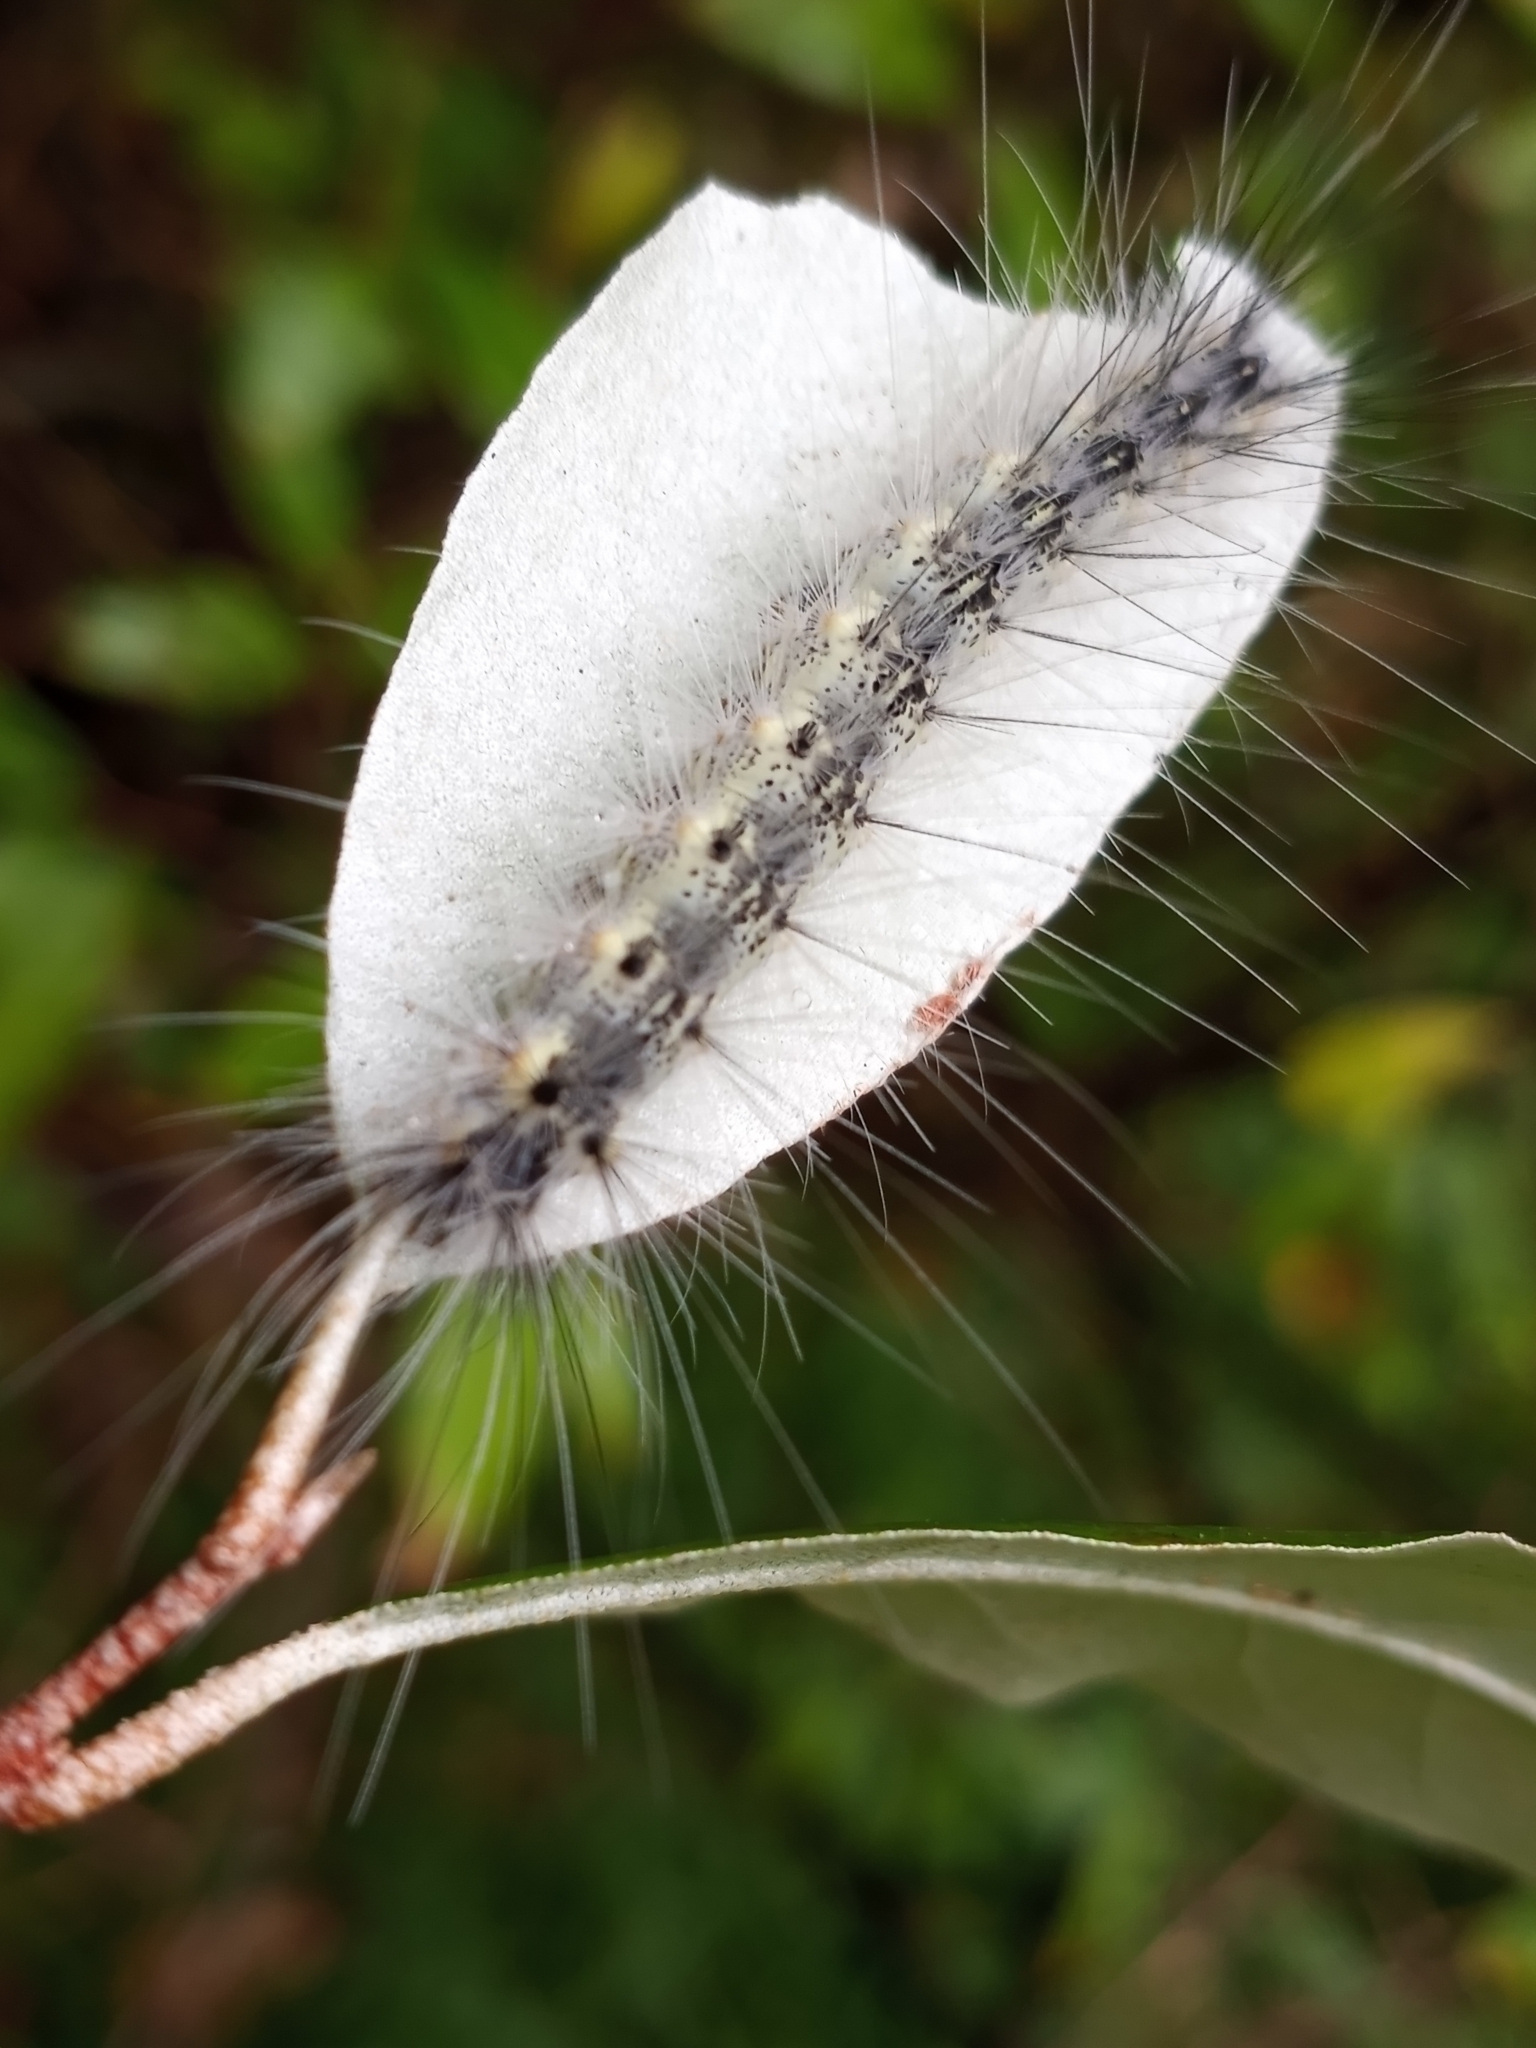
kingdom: Animalia
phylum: Arthropoda
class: Insecta
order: Lepidoptera
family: Erebidae
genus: Hyphantria
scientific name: Hyphantria cunea
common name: American white moth
